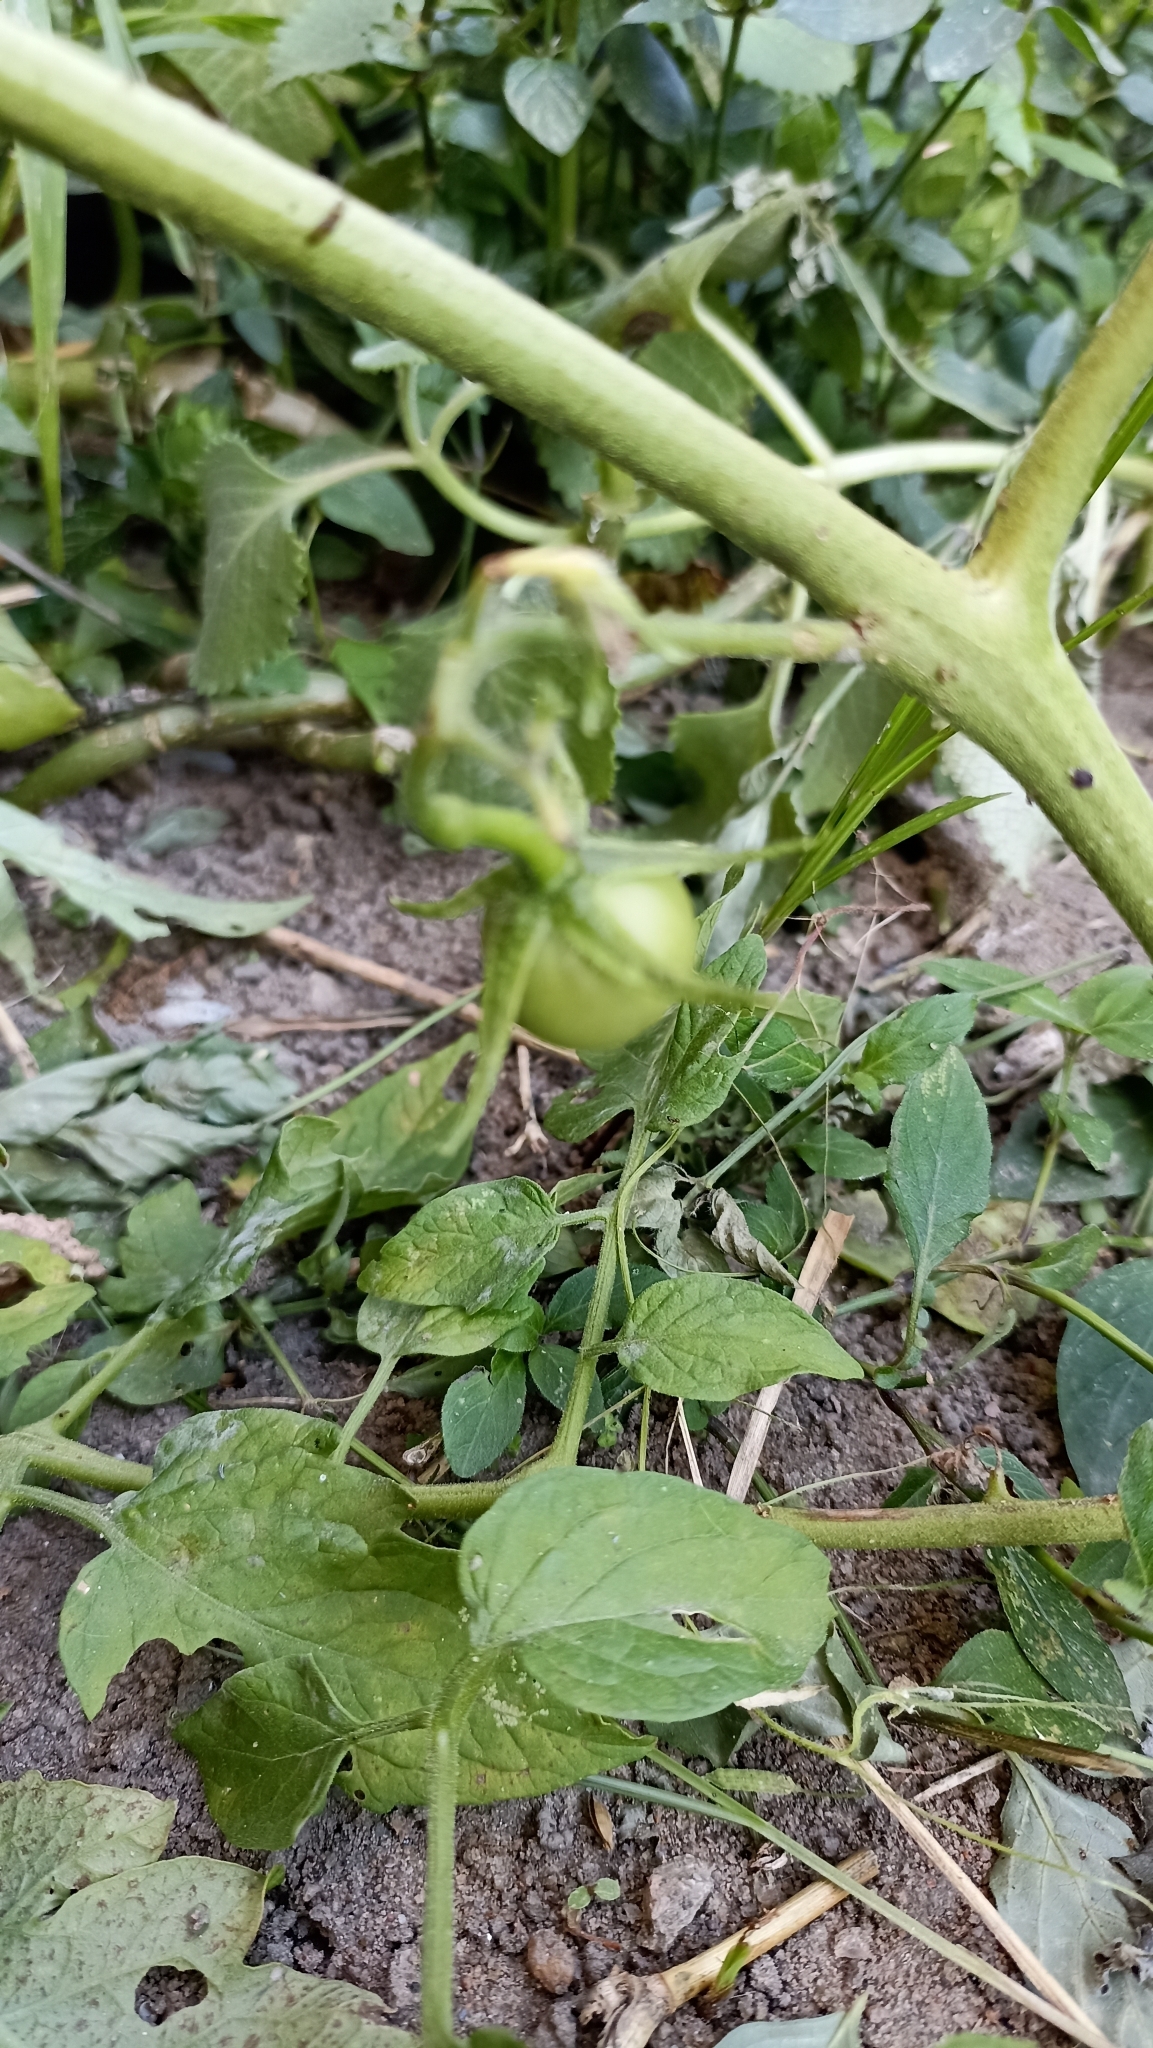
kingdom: Plantae
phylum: Tracheophyta
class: Magnoliopsida
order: Solanales
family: Solanaceae
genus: Solanum
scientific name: Solanum lycopersicum
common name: Garden tomato
